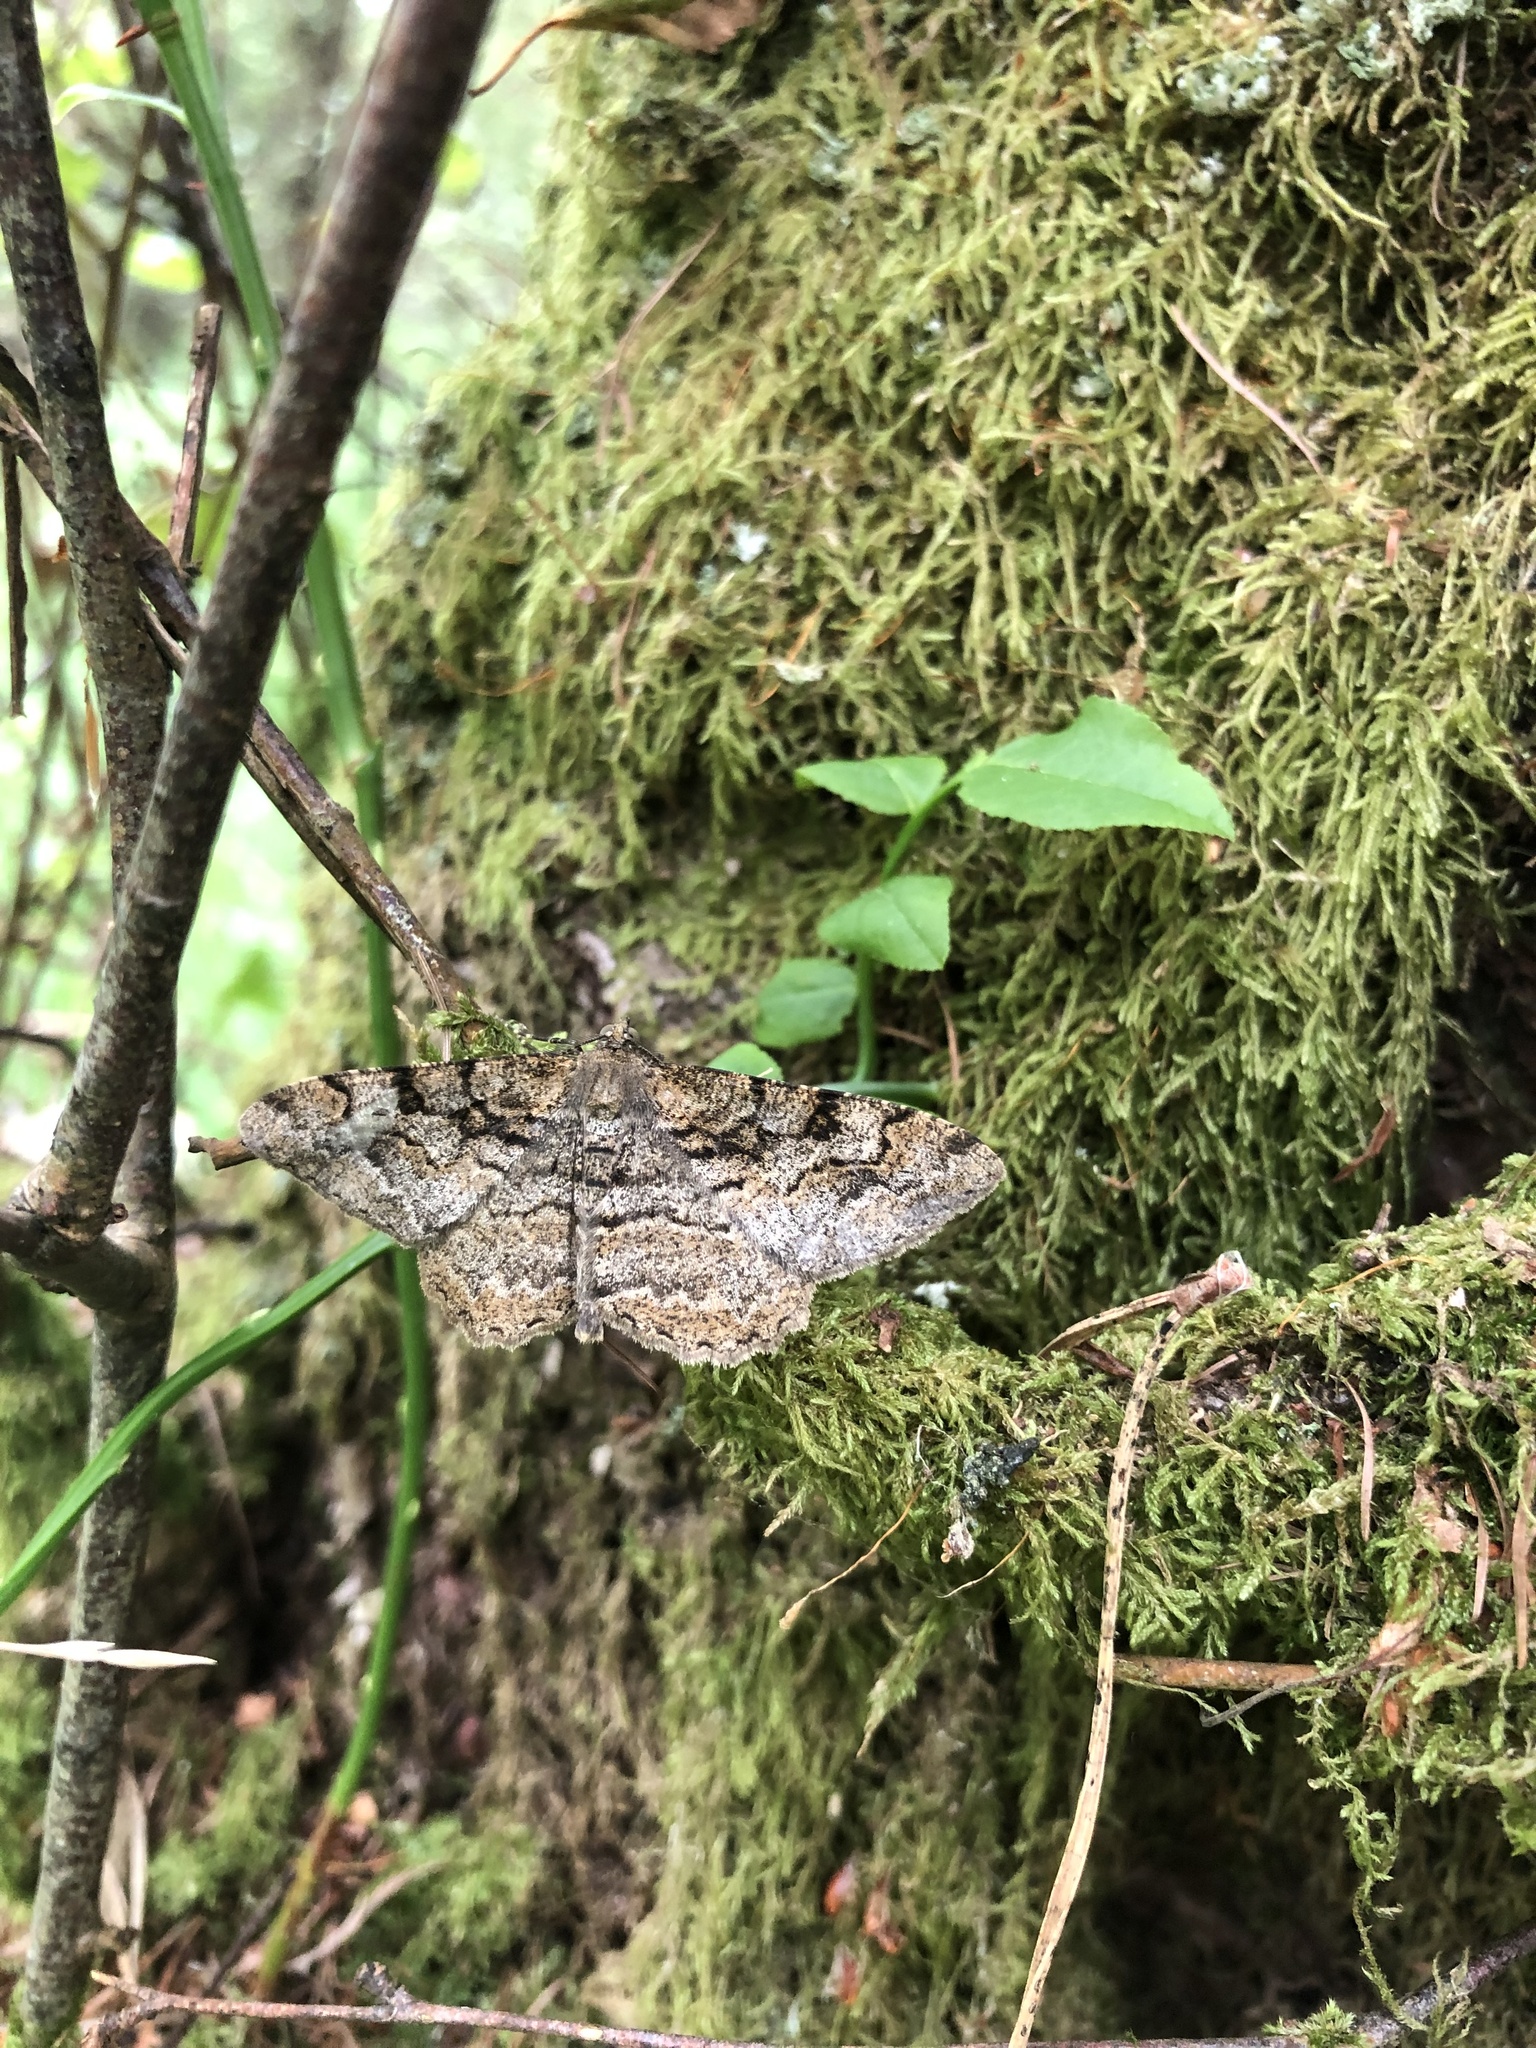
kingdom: Animalia
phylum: Arthropoda
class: Insecta
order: Lepidoptera
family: Geometridae
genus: Alcis
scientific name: Alcis repandata
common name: Mottled beauty
